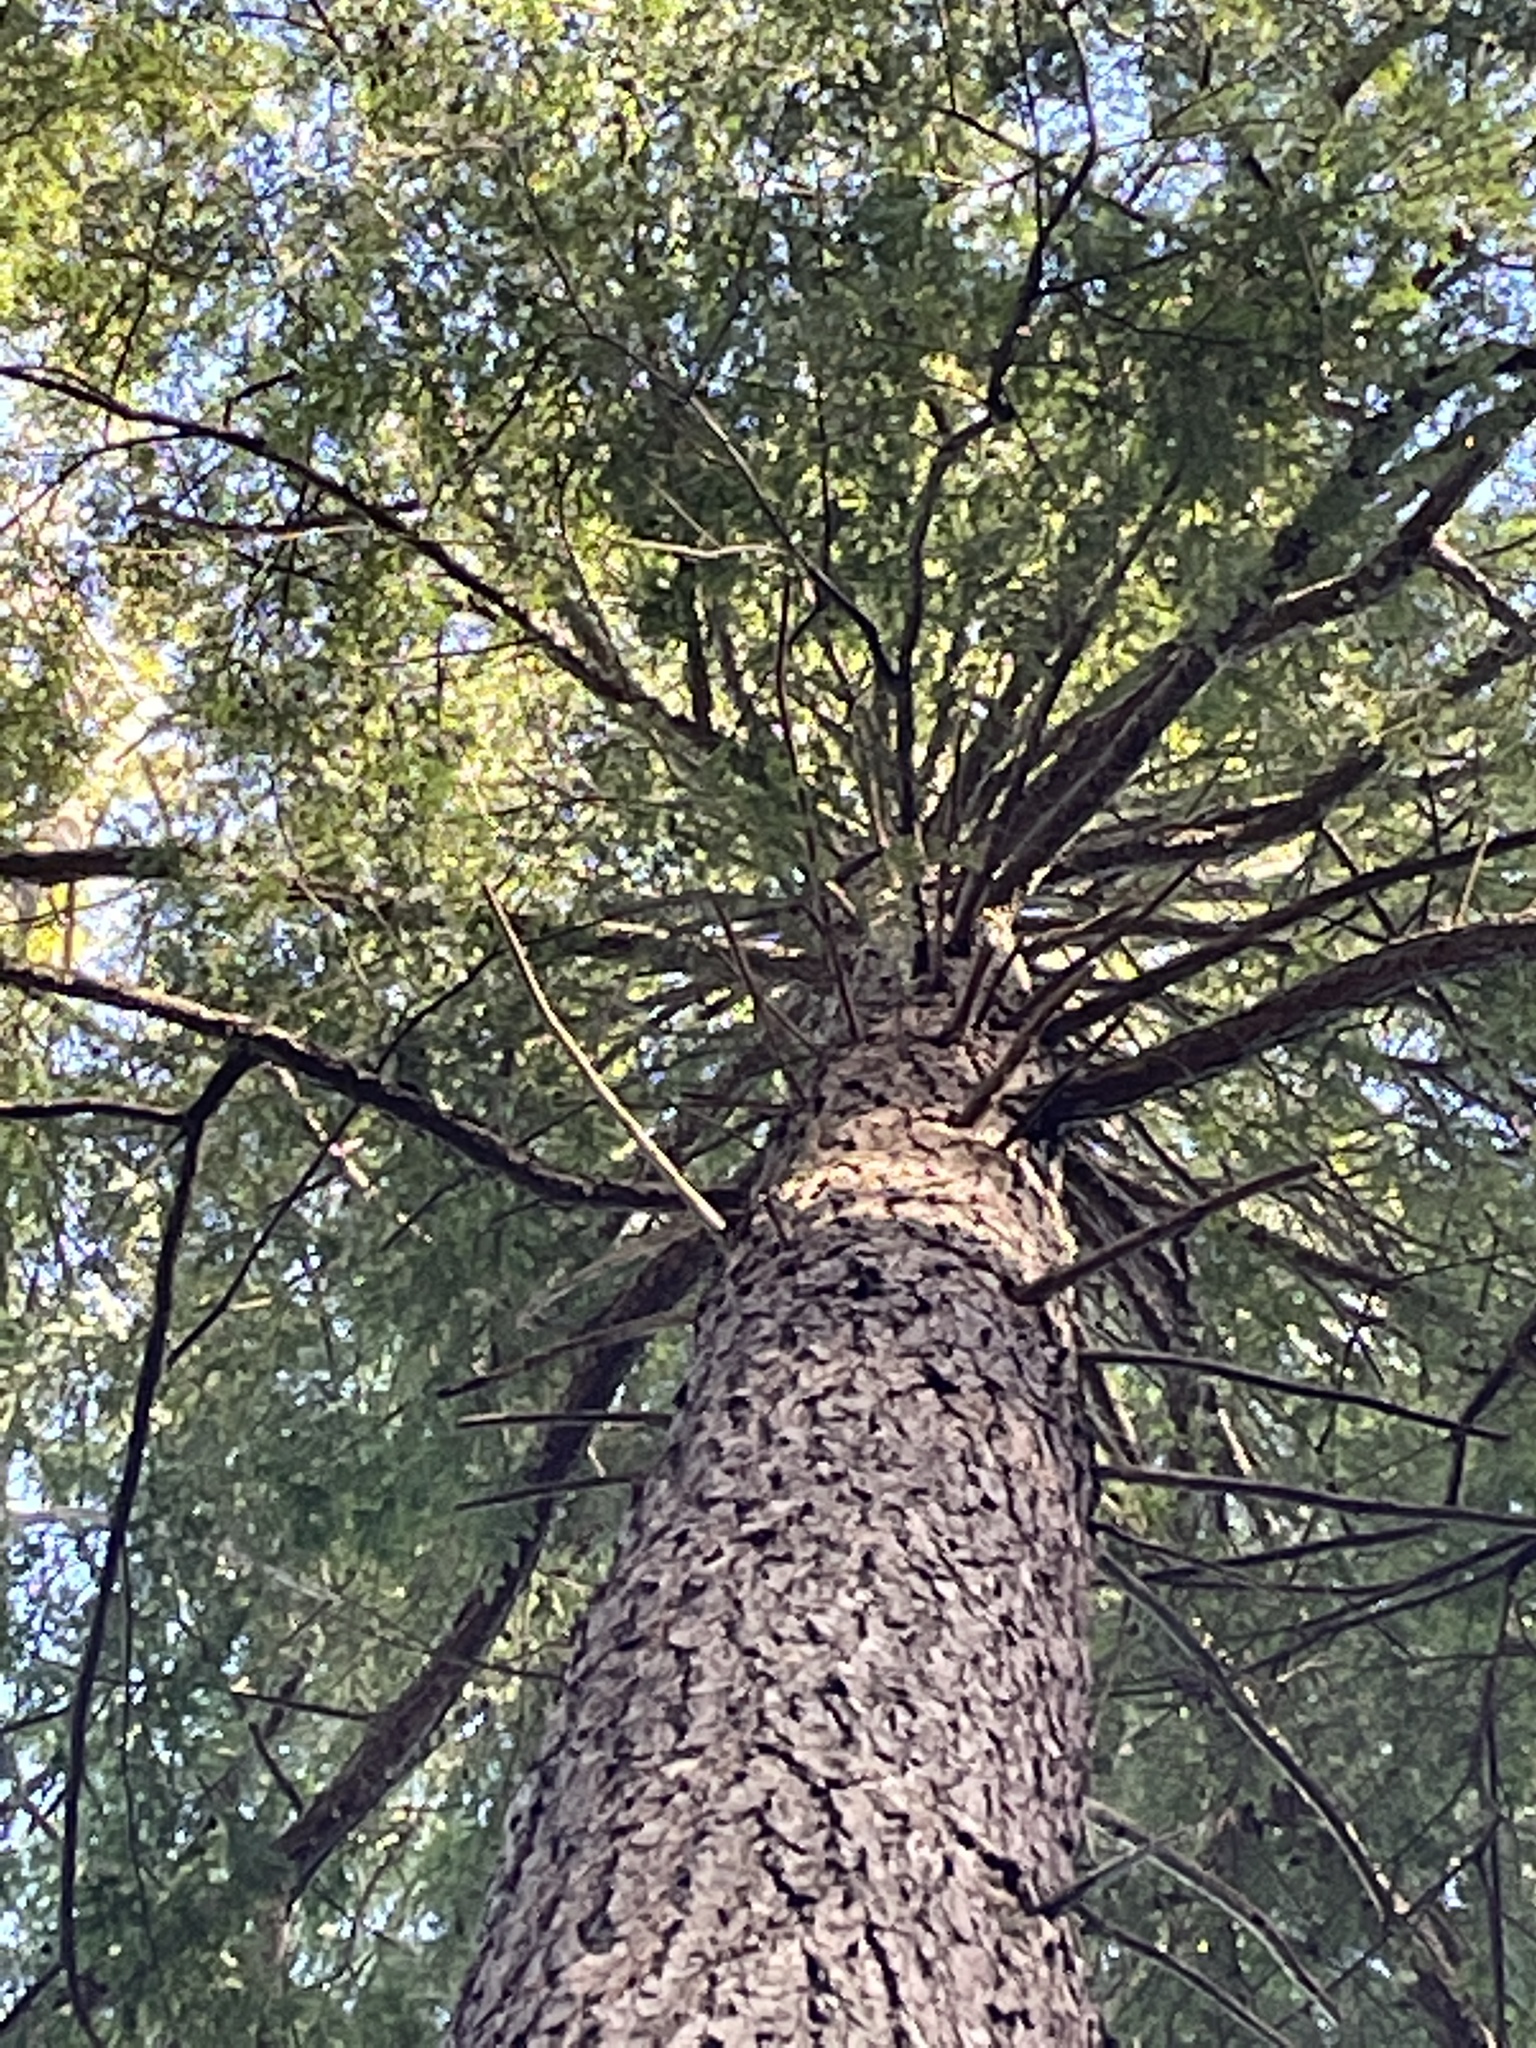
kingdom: Plantae
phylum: Tracheophyta
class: Pinopsida
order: Pinales
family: Pinaceae
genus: Tsuga
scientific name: Tsuga canadensis
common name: Eastern hemlock
